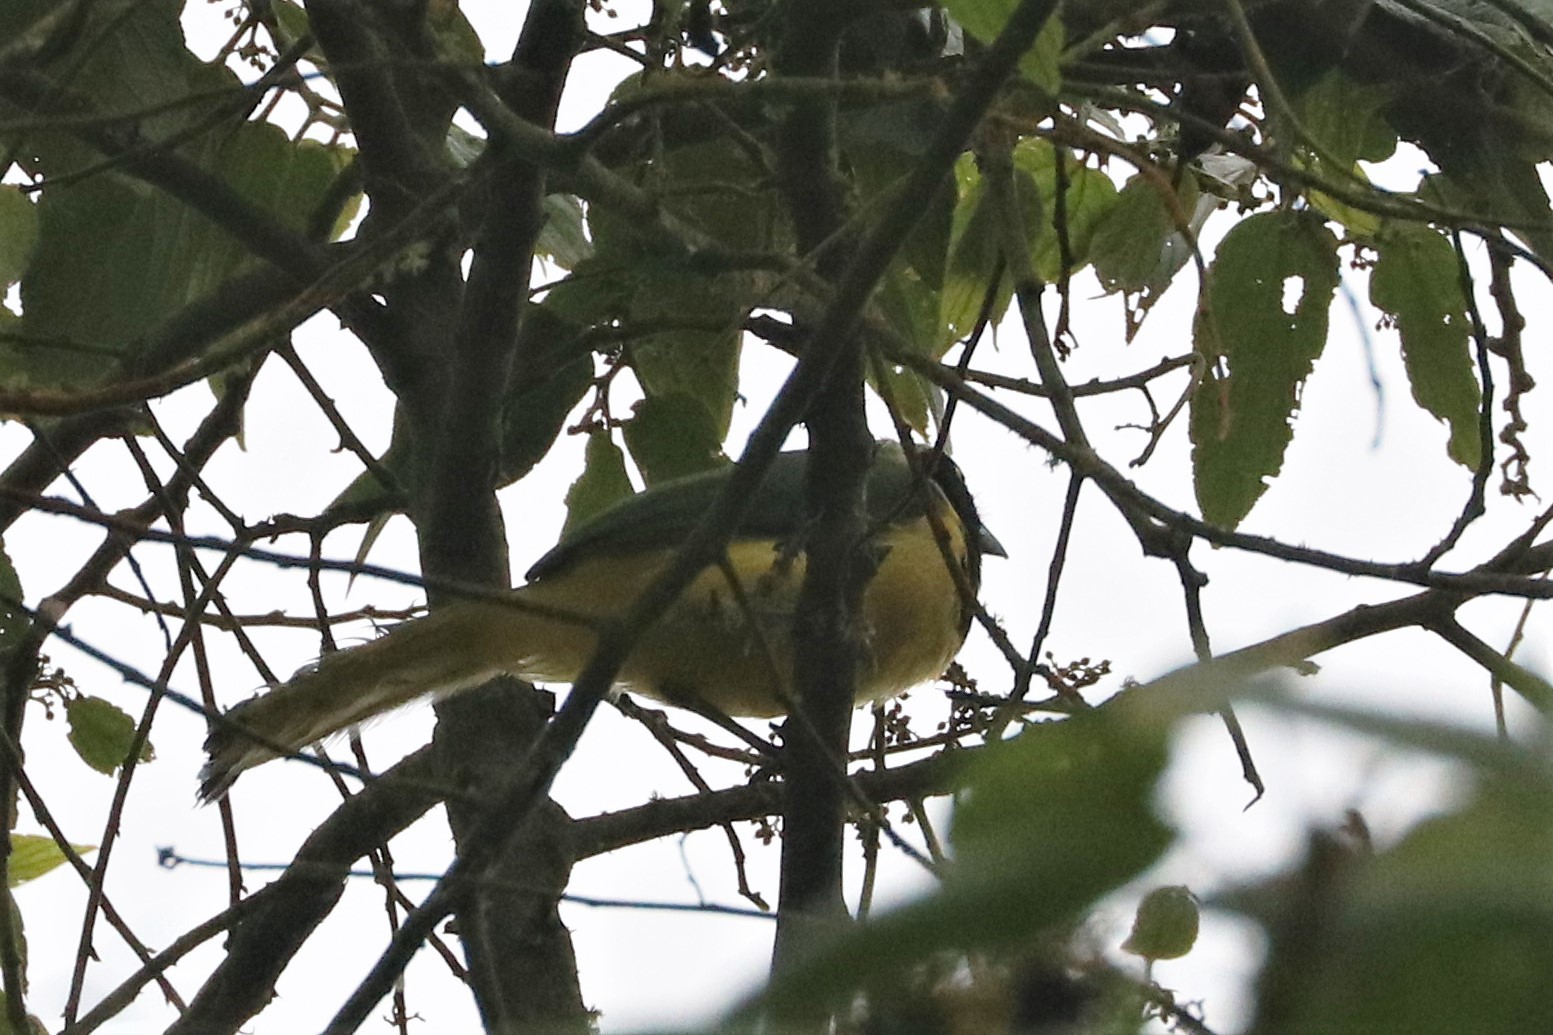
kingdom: Animalia
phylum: Chordata
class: Aves
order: Passeriformes
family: Corvidae
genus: Cyanocorax
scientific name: Cyanocorax yncas
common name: Green jay
